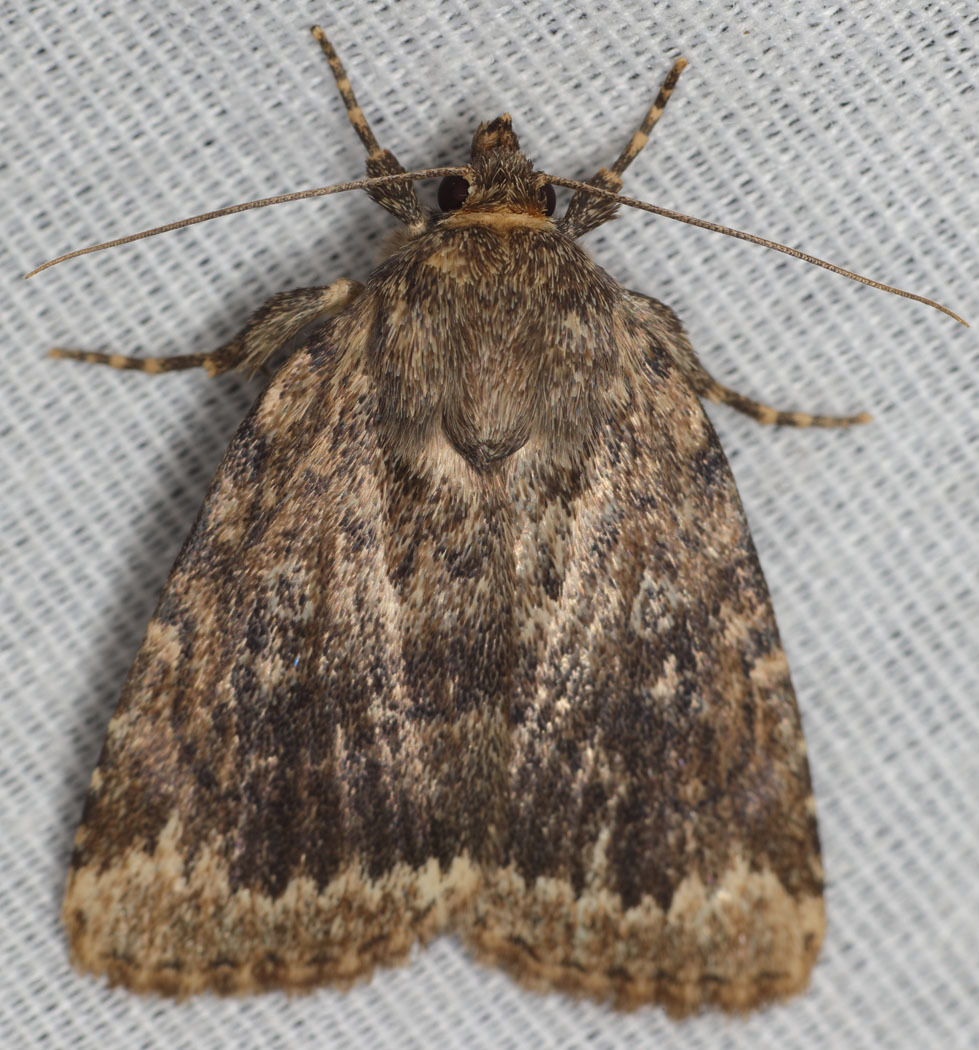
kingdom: Animalia
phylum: Arthropoda
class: Insecta
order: Lepidoptera
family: Noctuidae
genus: Amphipyra
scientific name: Amphipyra brunneoatra
